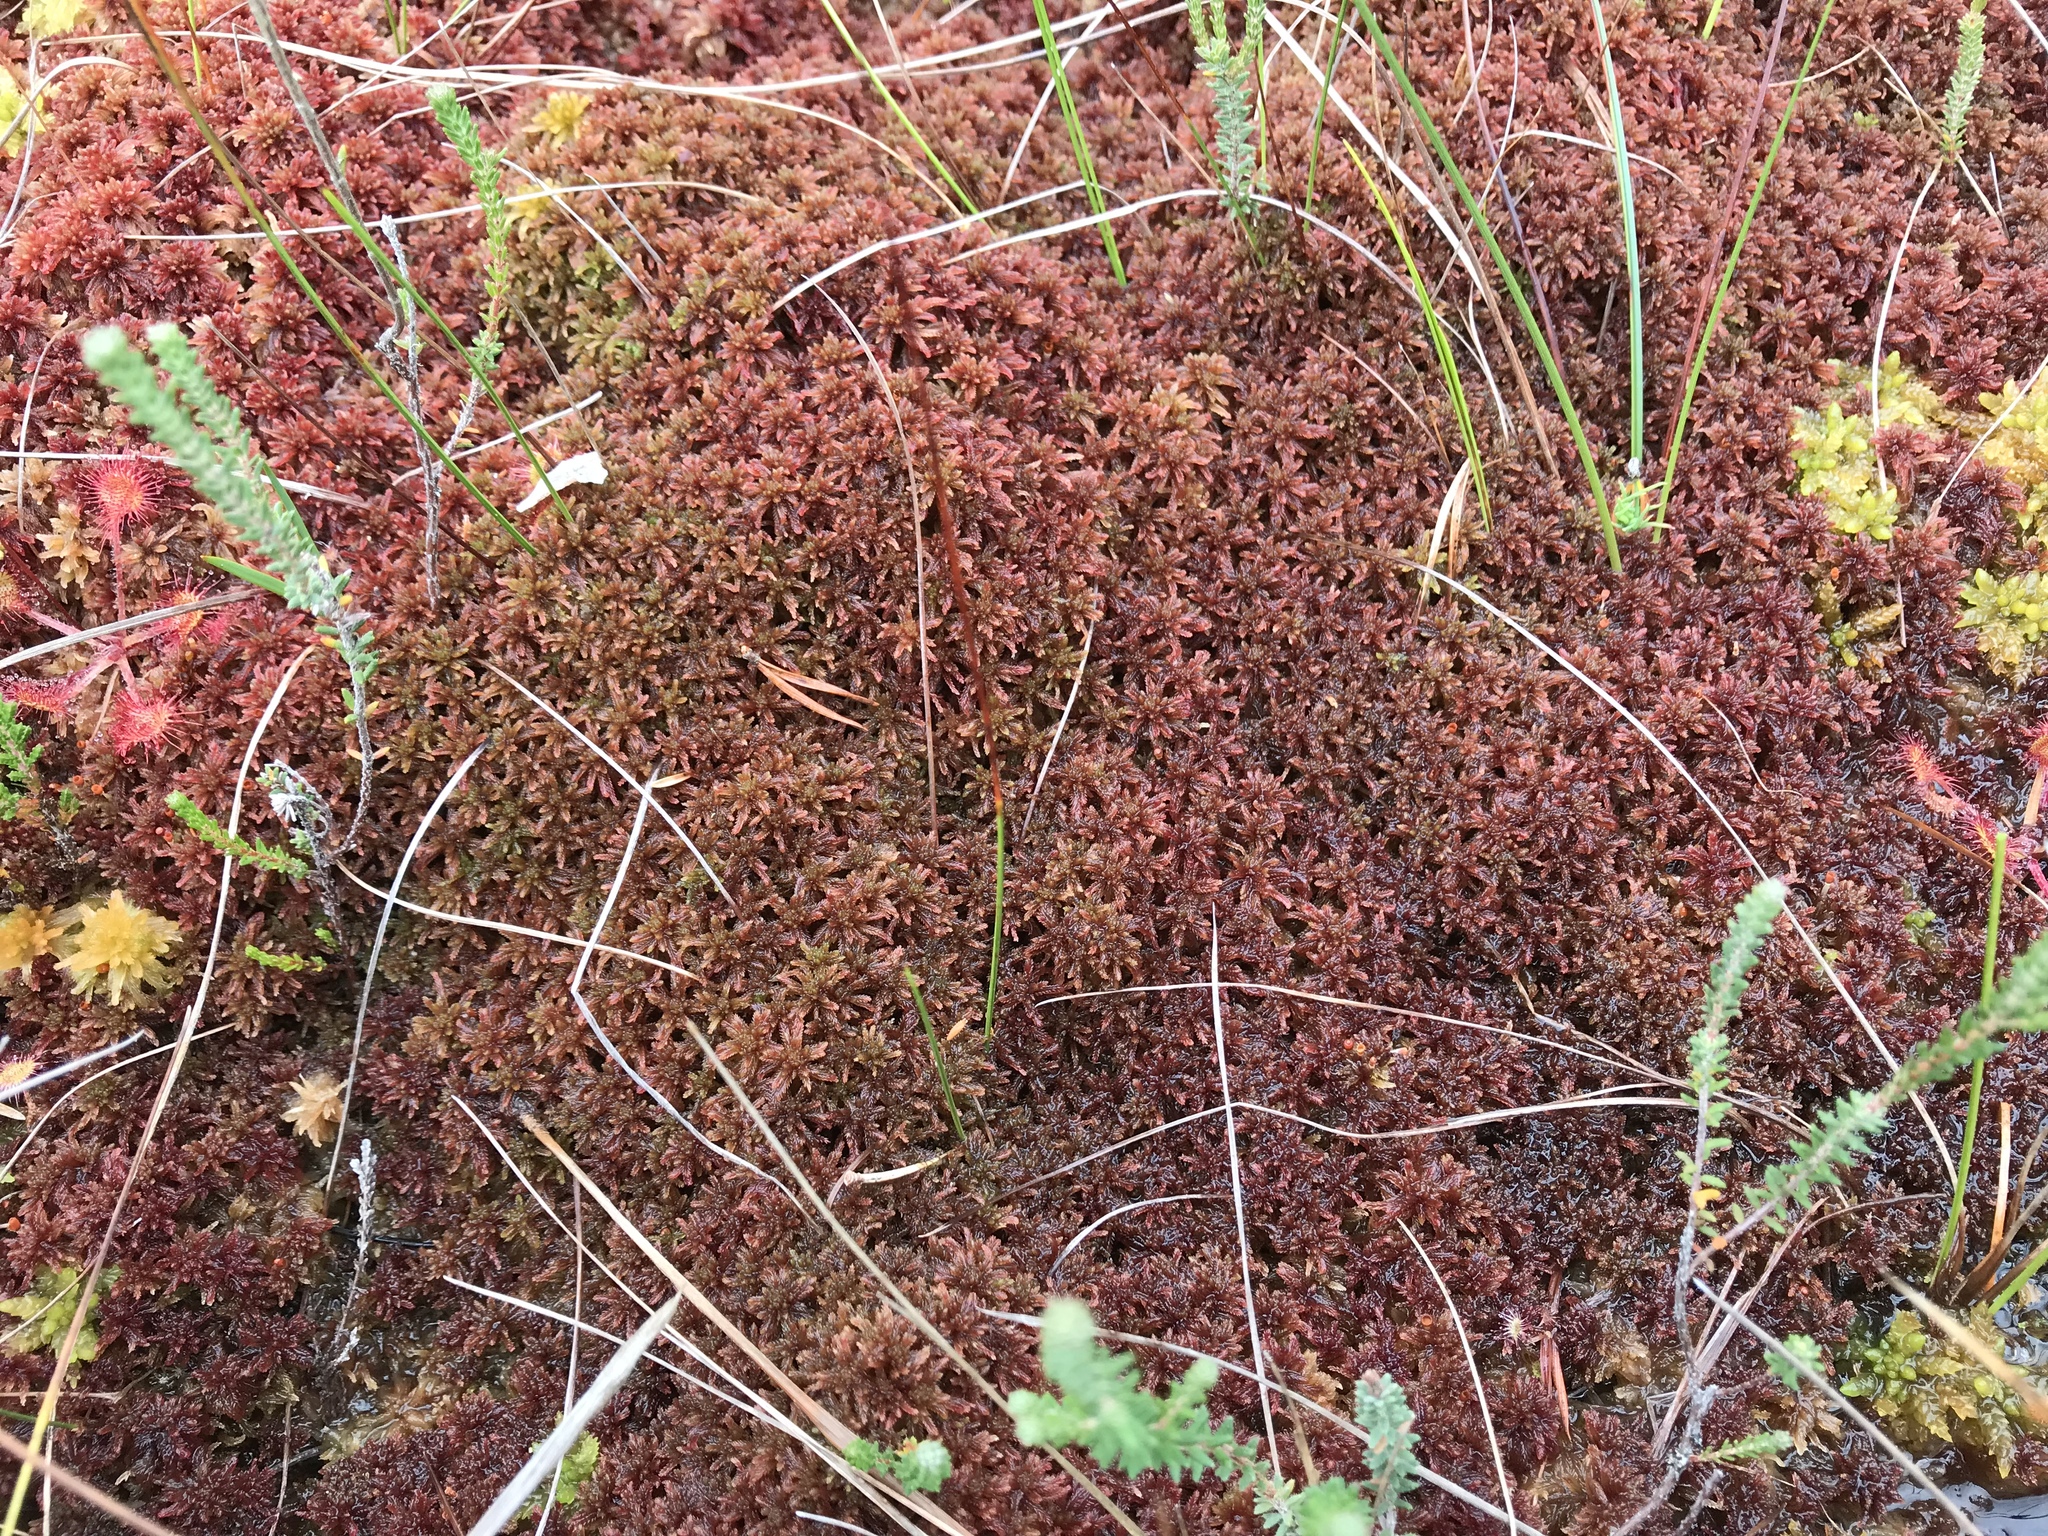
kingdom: Plantae
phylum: Bryophyta
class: Sphagnopsida
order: Sphagnales
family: Sphagnaceae
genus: Sphagnum
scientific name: Sphagnum warnstorfii
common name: Warnstorf's peat moss
